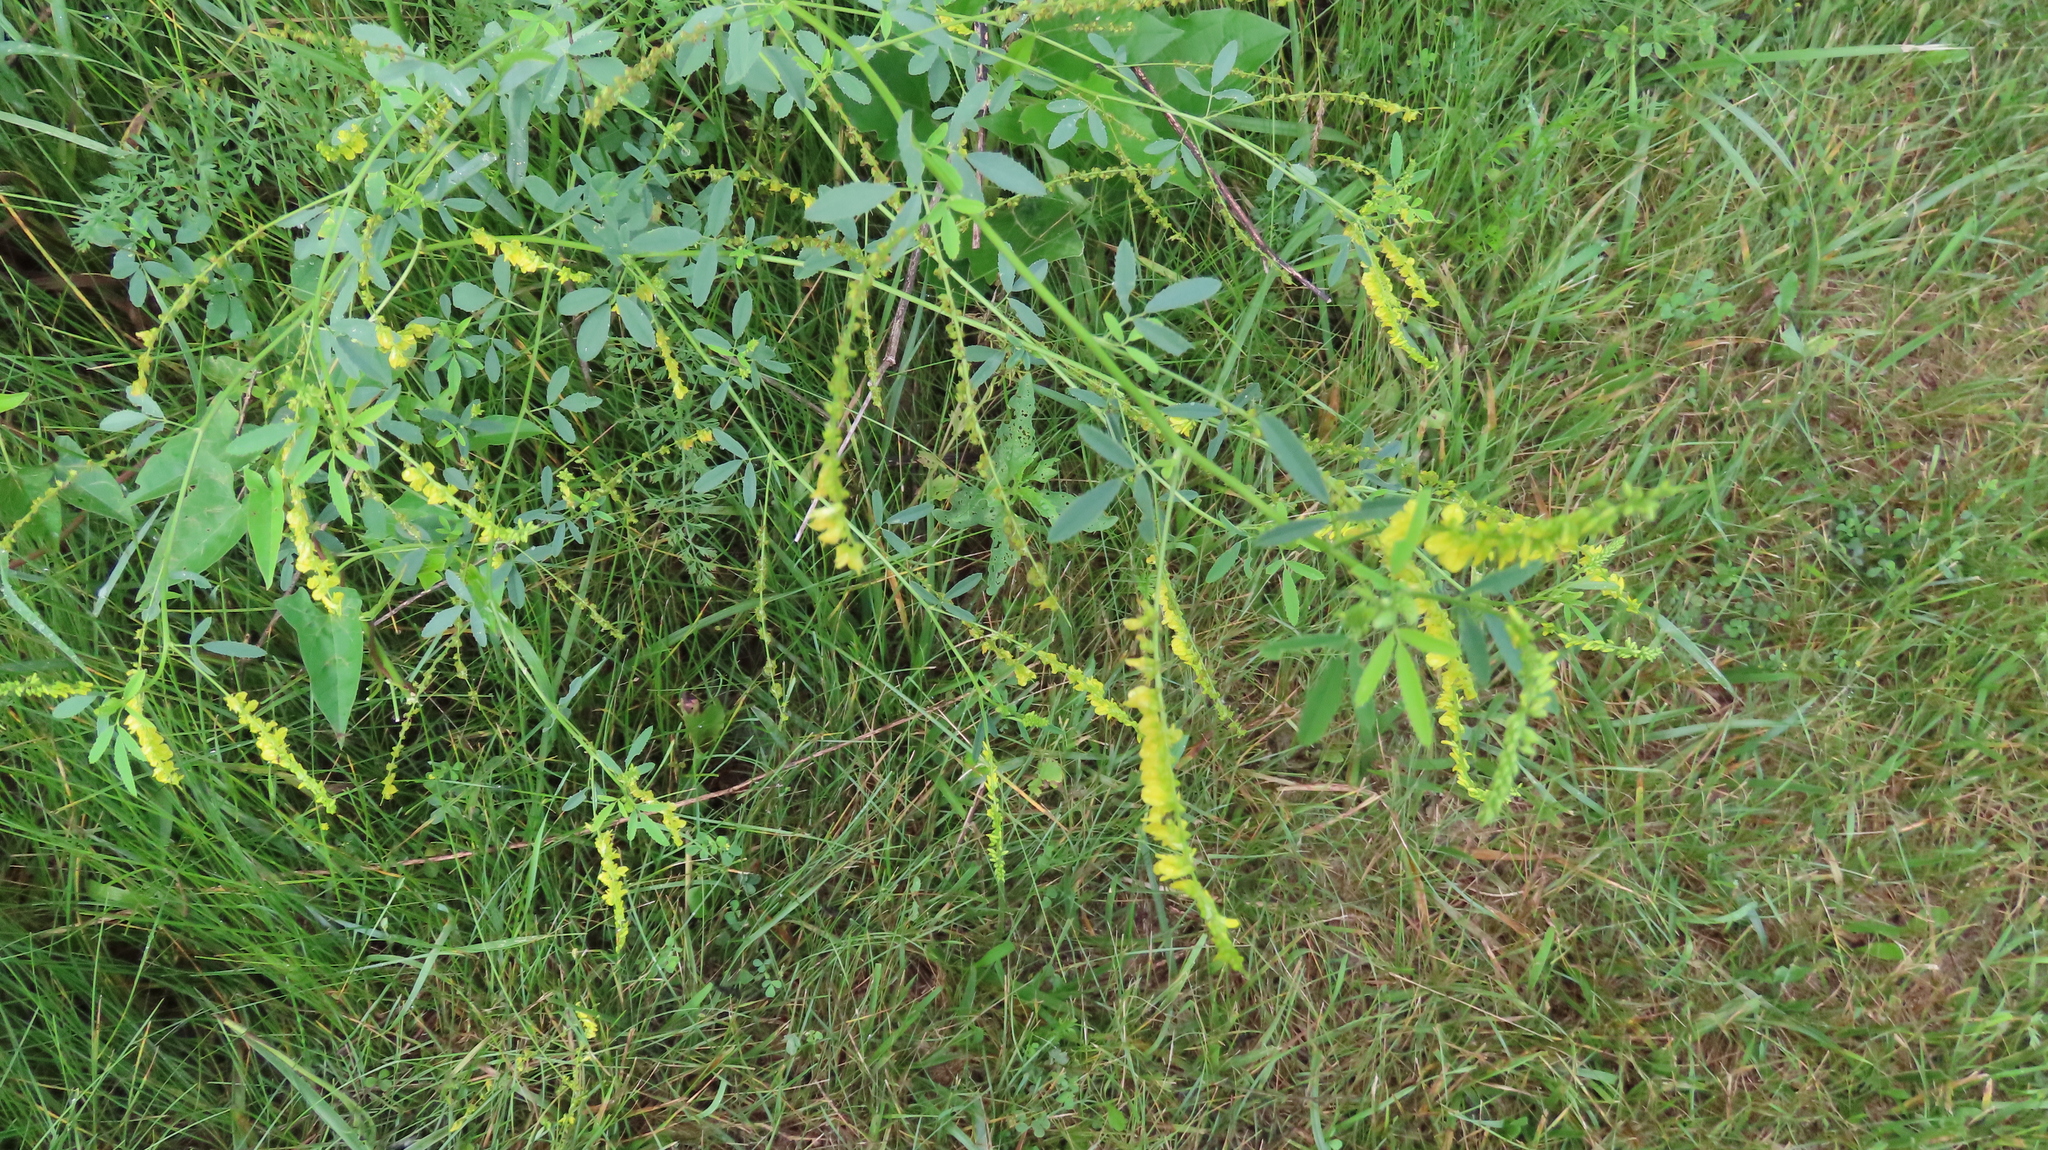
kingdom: Plantae
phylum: Tracheophyta
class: Magnoliopsida
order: Fabales
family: Fabaceae
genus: Melilotus
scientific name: Melilotus officinalis
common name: Sweetclover
